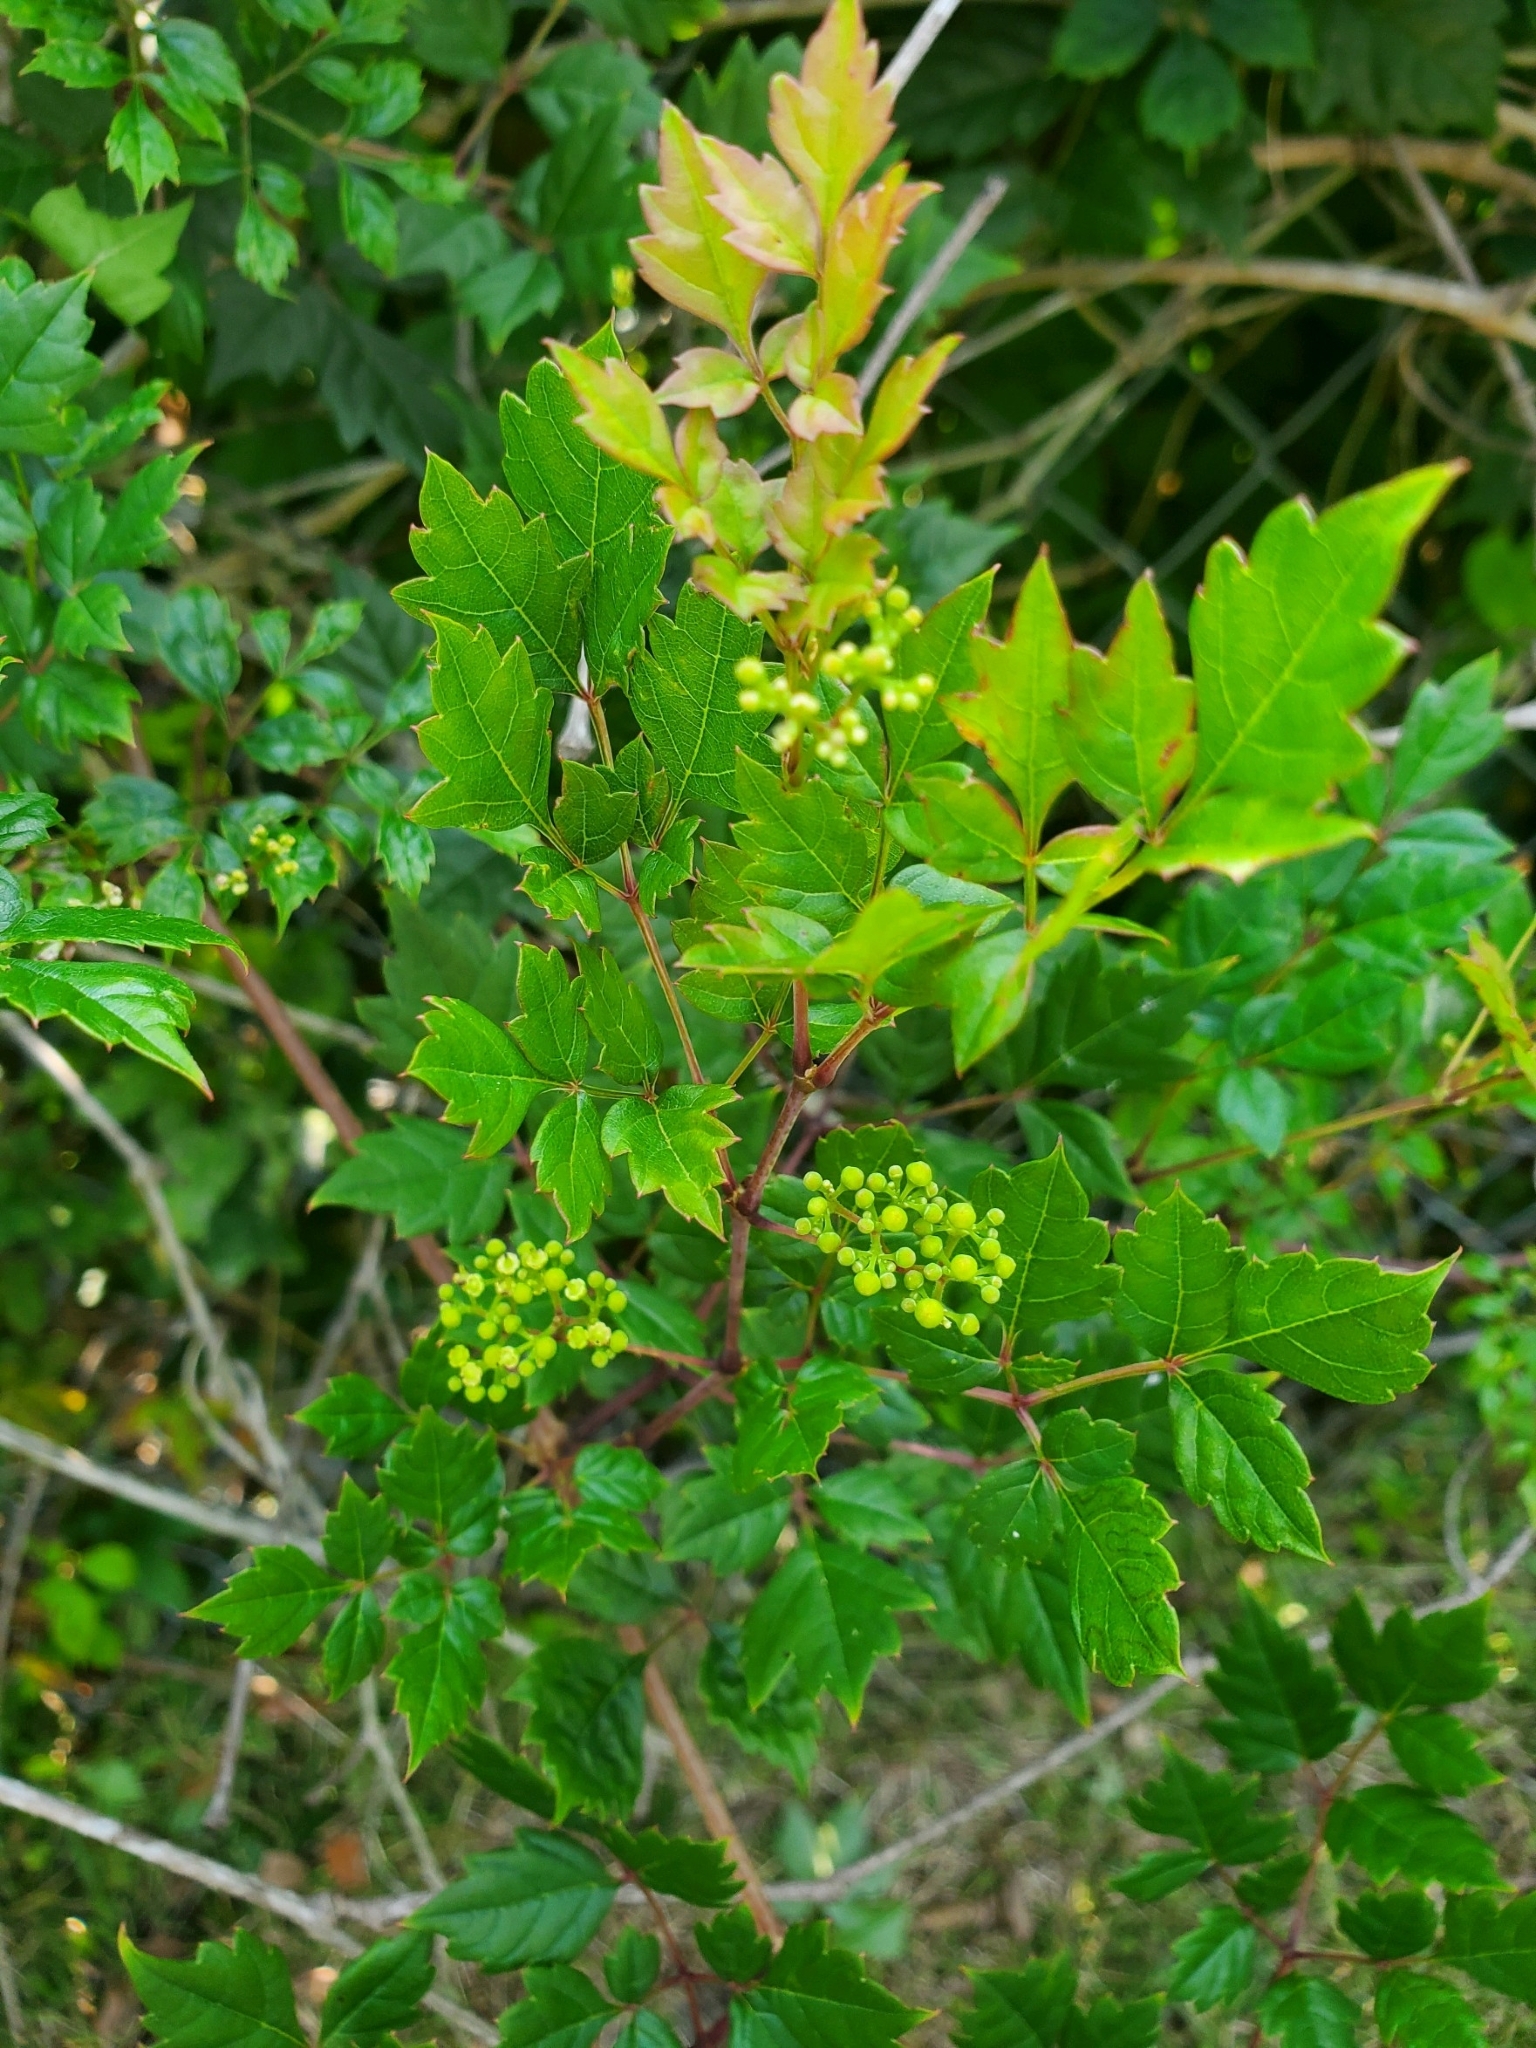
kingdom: Plantae
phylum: Tracheophyta
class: Magnoliopsida
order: Vitales
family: Vitaceae
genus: Nekemias
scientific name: Nekemias arborea
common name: Peppervine
